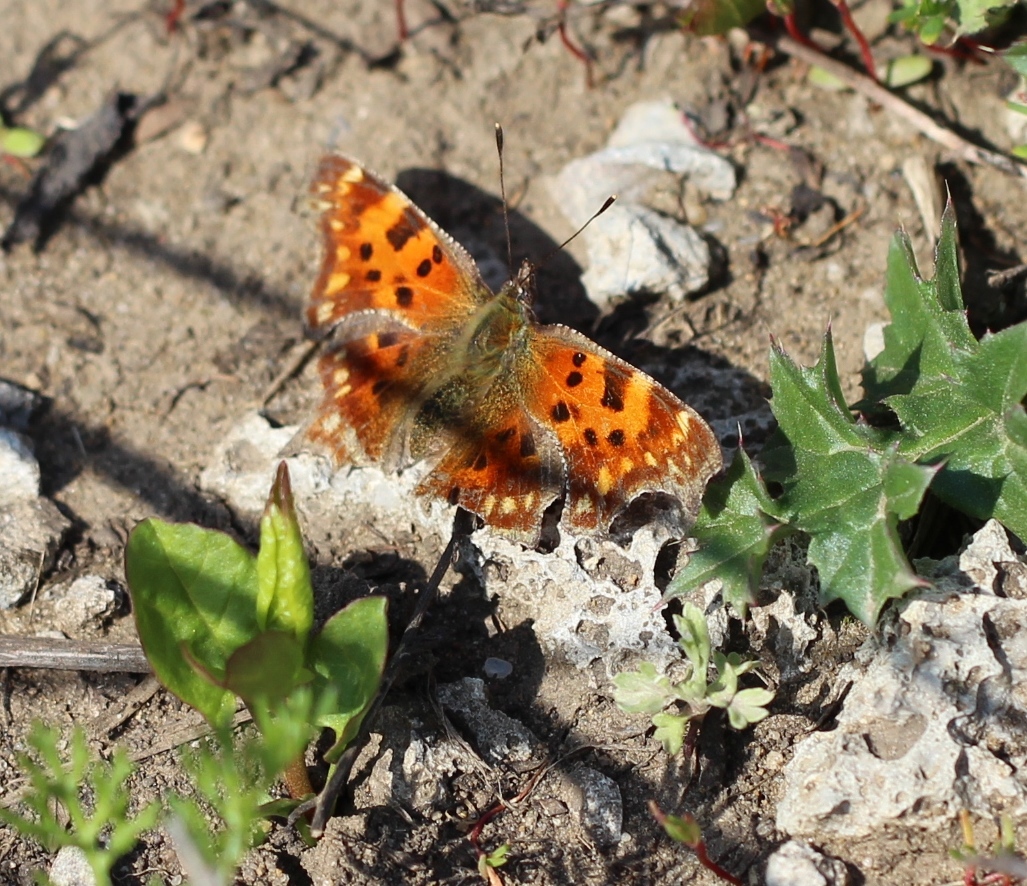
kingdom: Animalia
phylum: Arthropoda
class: Insecta
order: Lepidoptera
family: Nymphalidae
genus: Polygonia
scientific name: Polygonia c-album
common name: Comma
